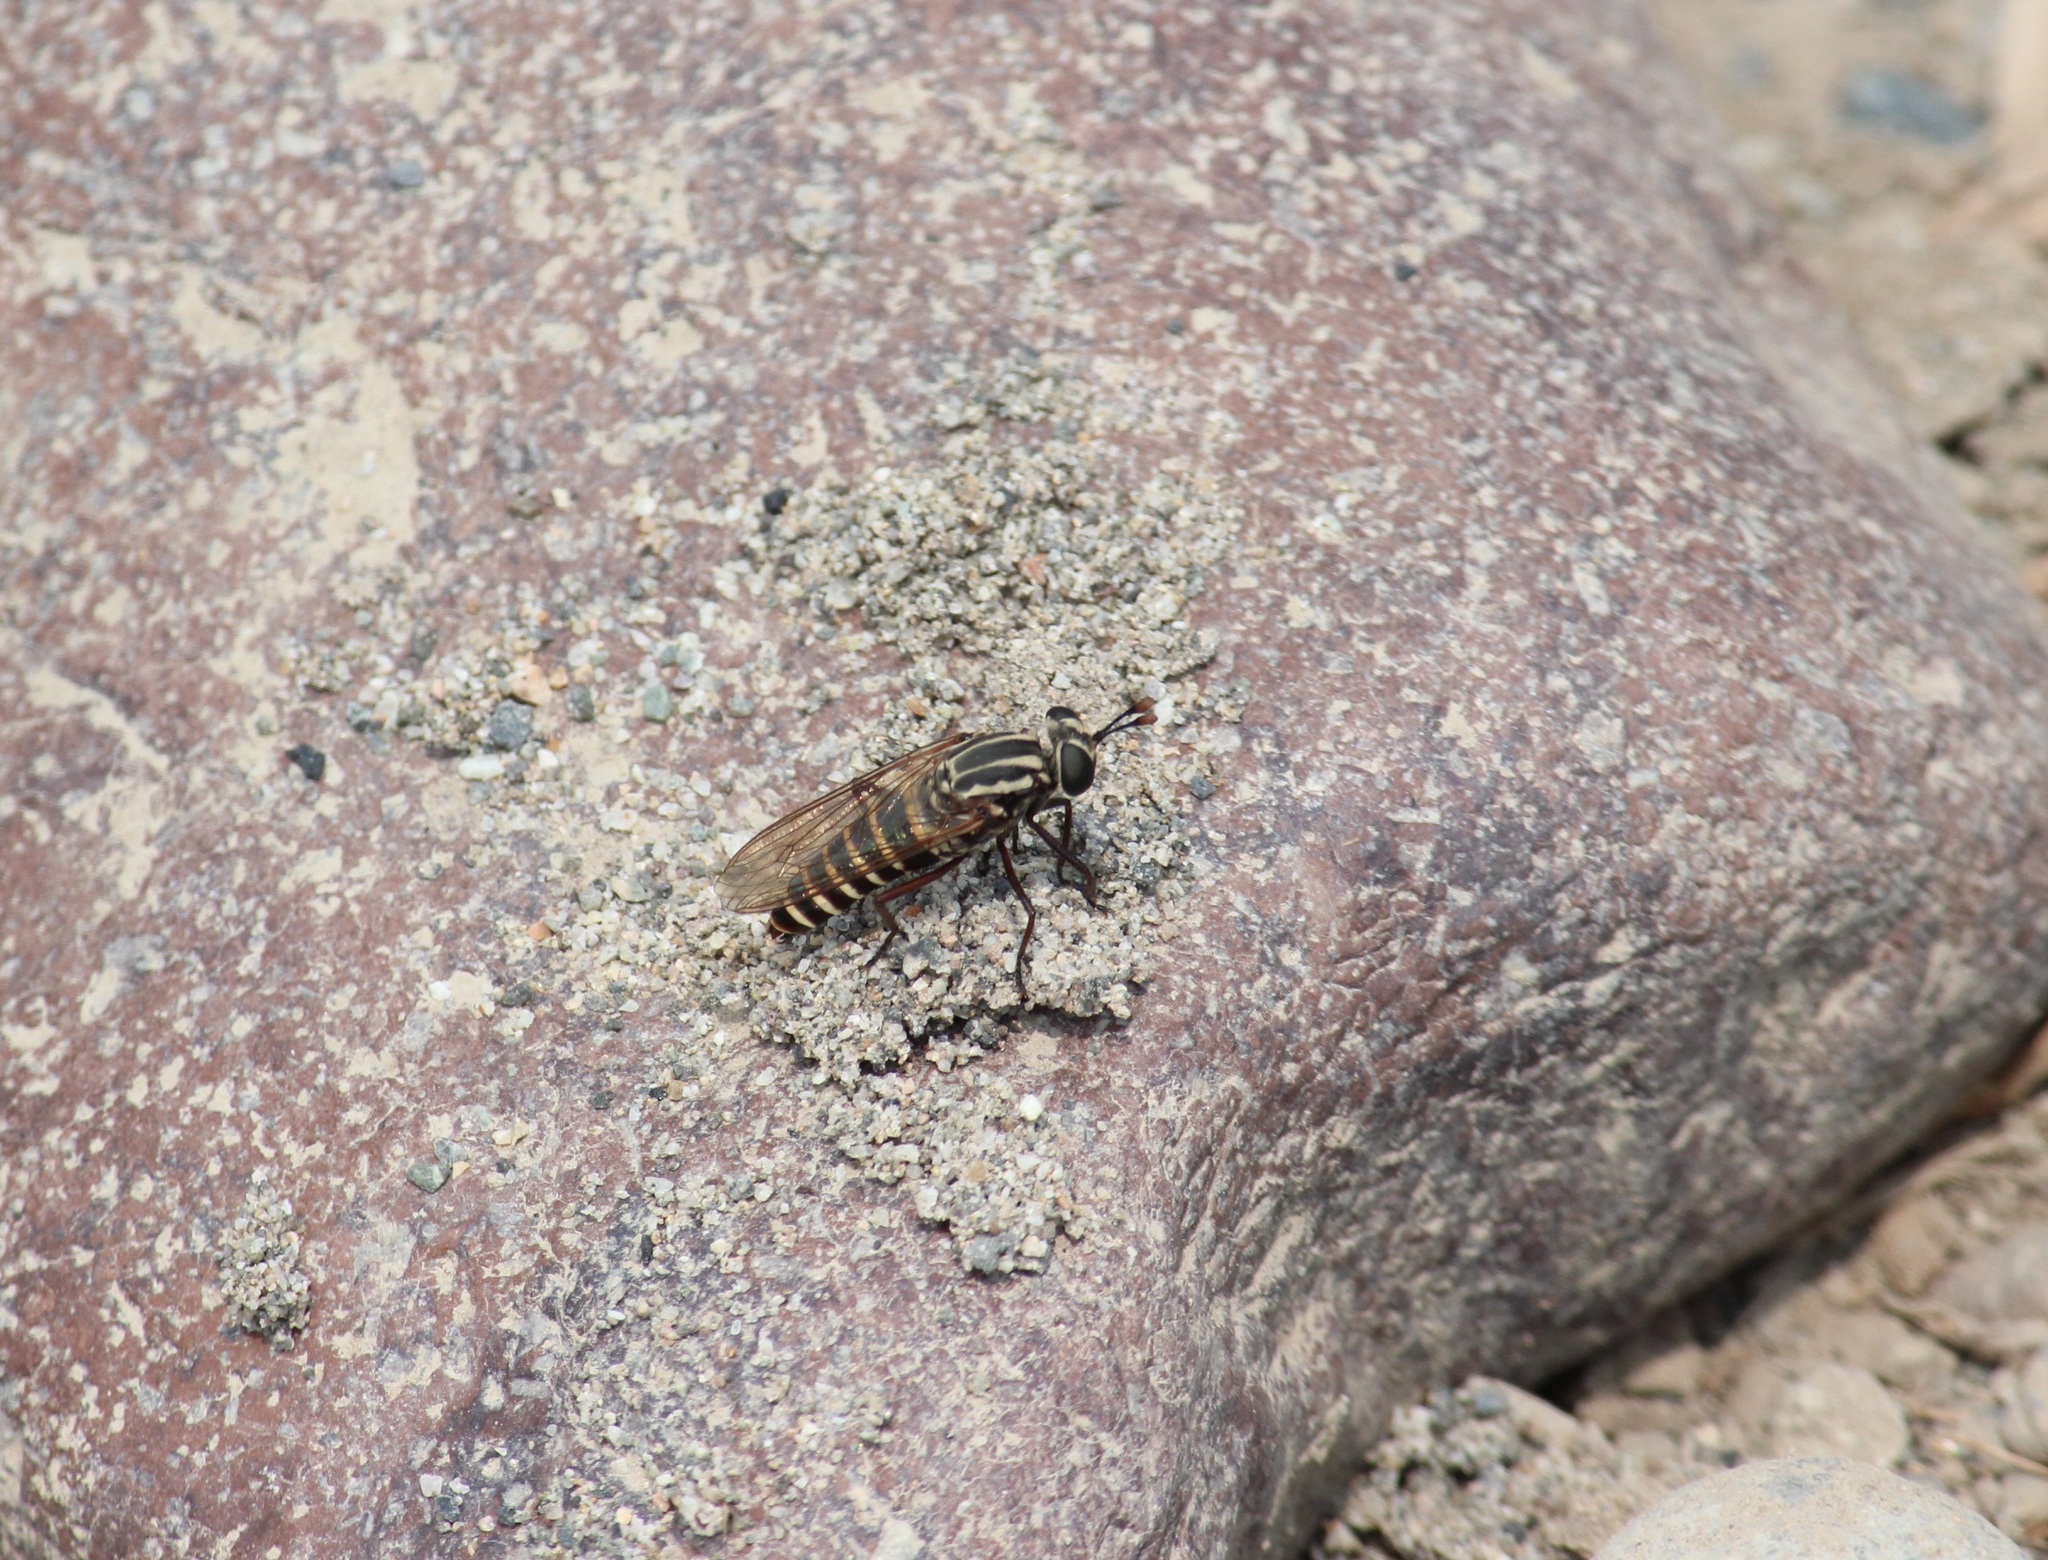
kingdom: Animalia
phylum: Arthropoda
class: Insecta
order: Diptera
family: Mydidae
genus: Plyomydas
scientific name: Plyomydas peruviensis
